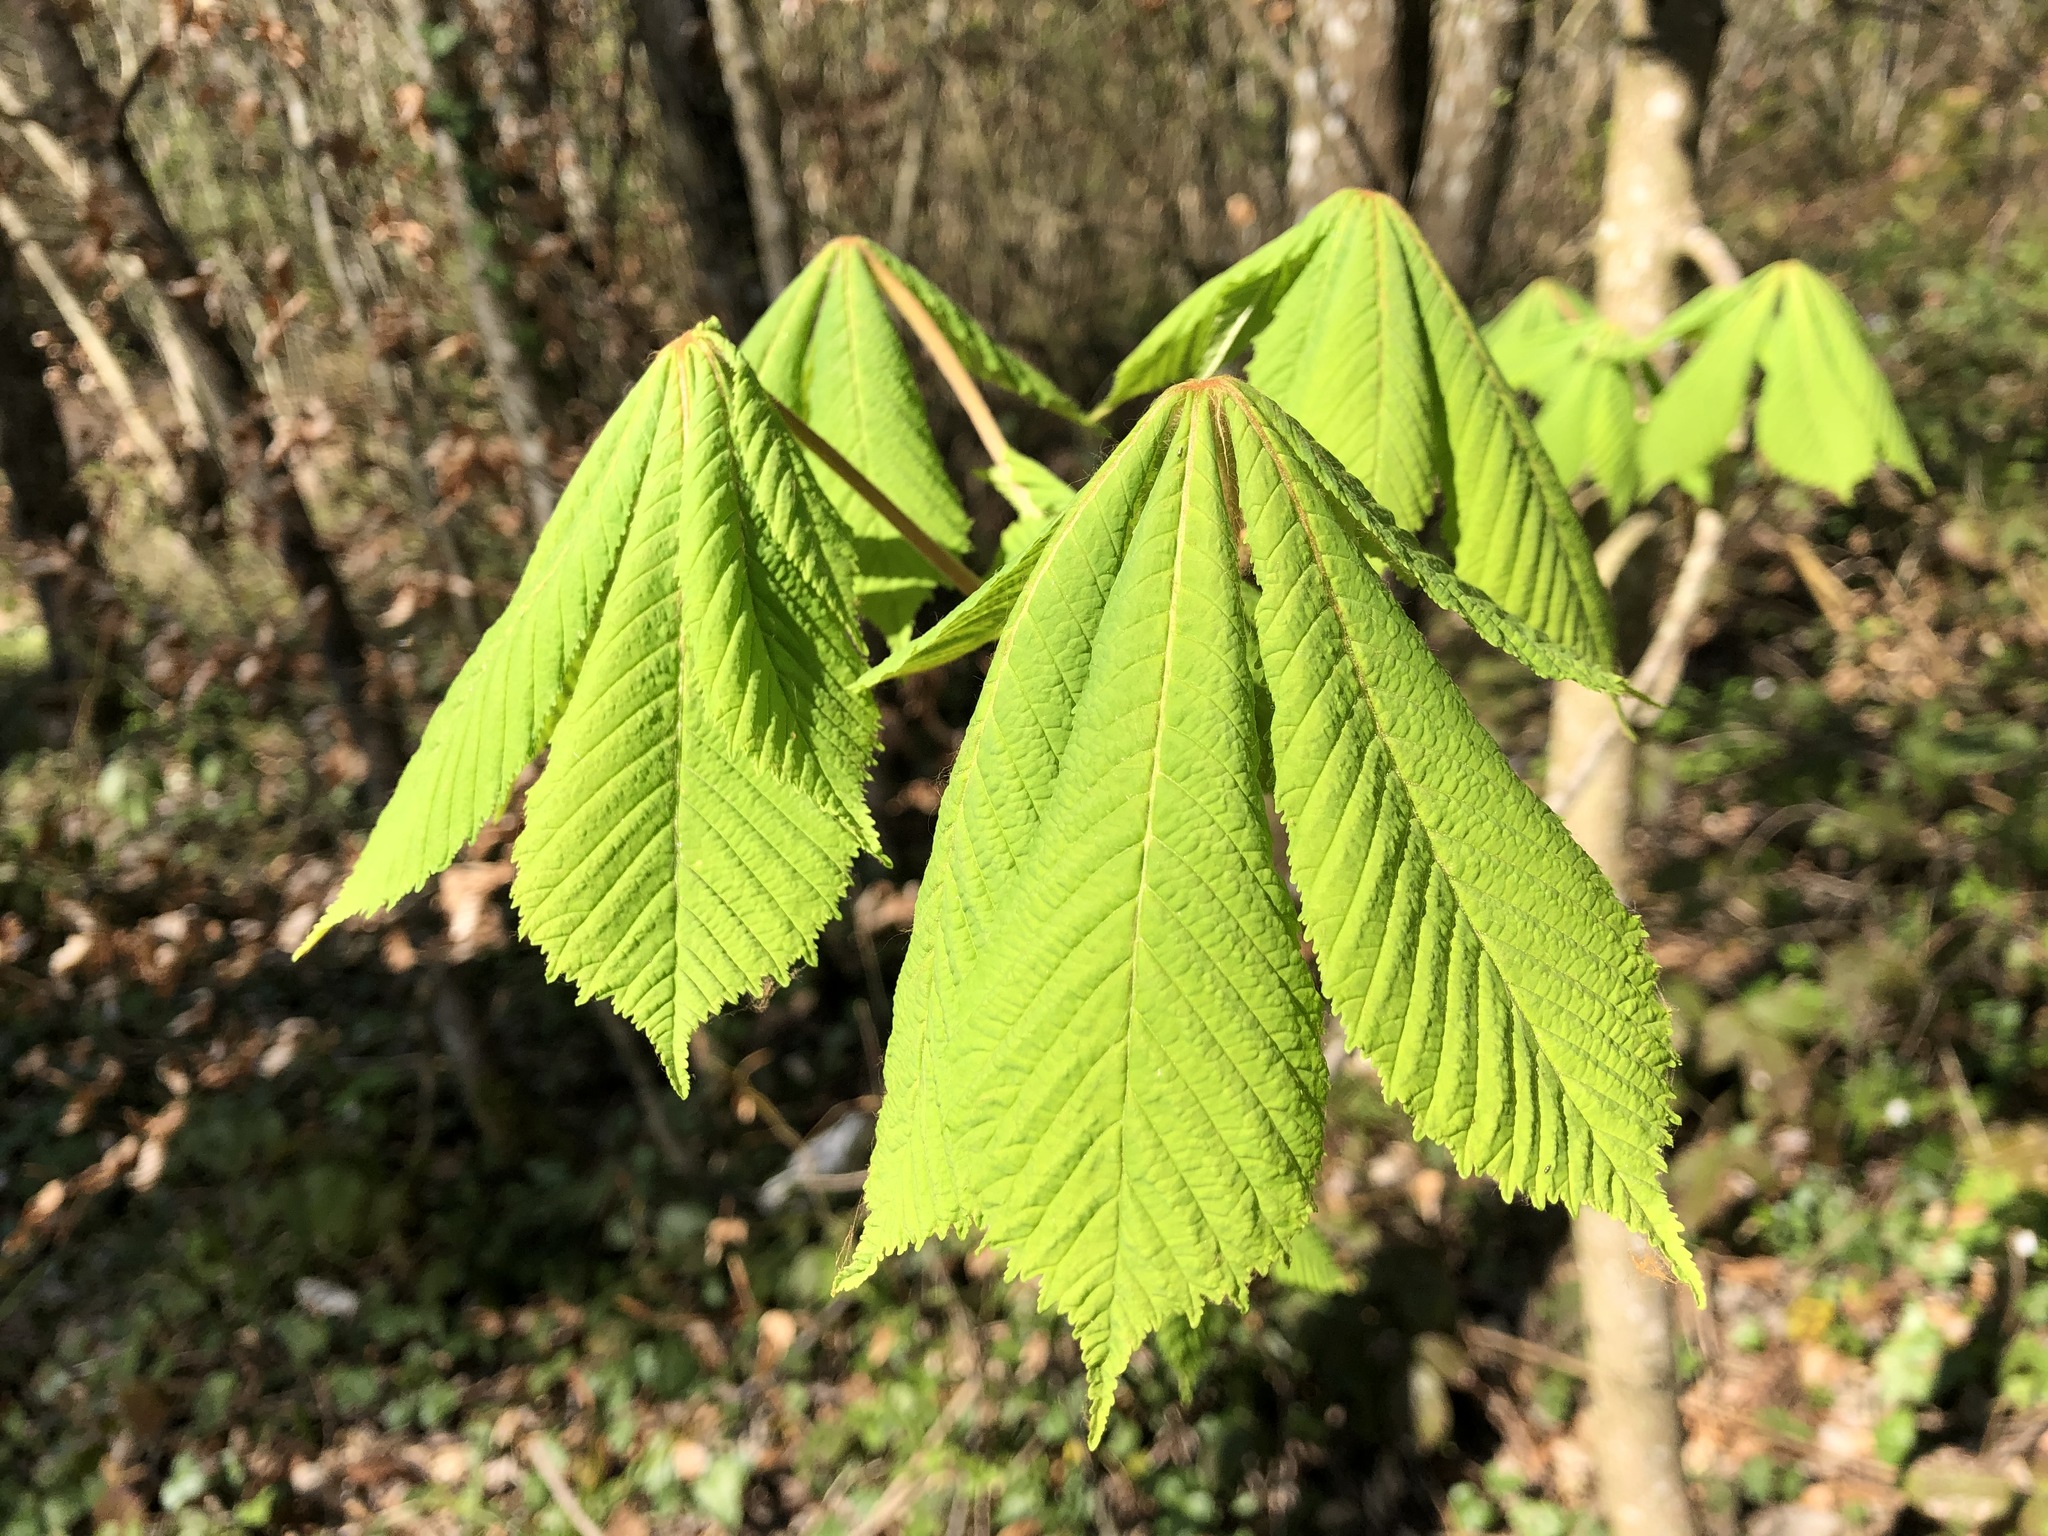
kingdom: Plantae
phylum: Tracheophyta
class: Magnoliopsida
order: Sapindales
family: Sapindaceae
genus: Aesculus
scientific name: Aesculus hippocastanum
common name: Horse-chestnut
